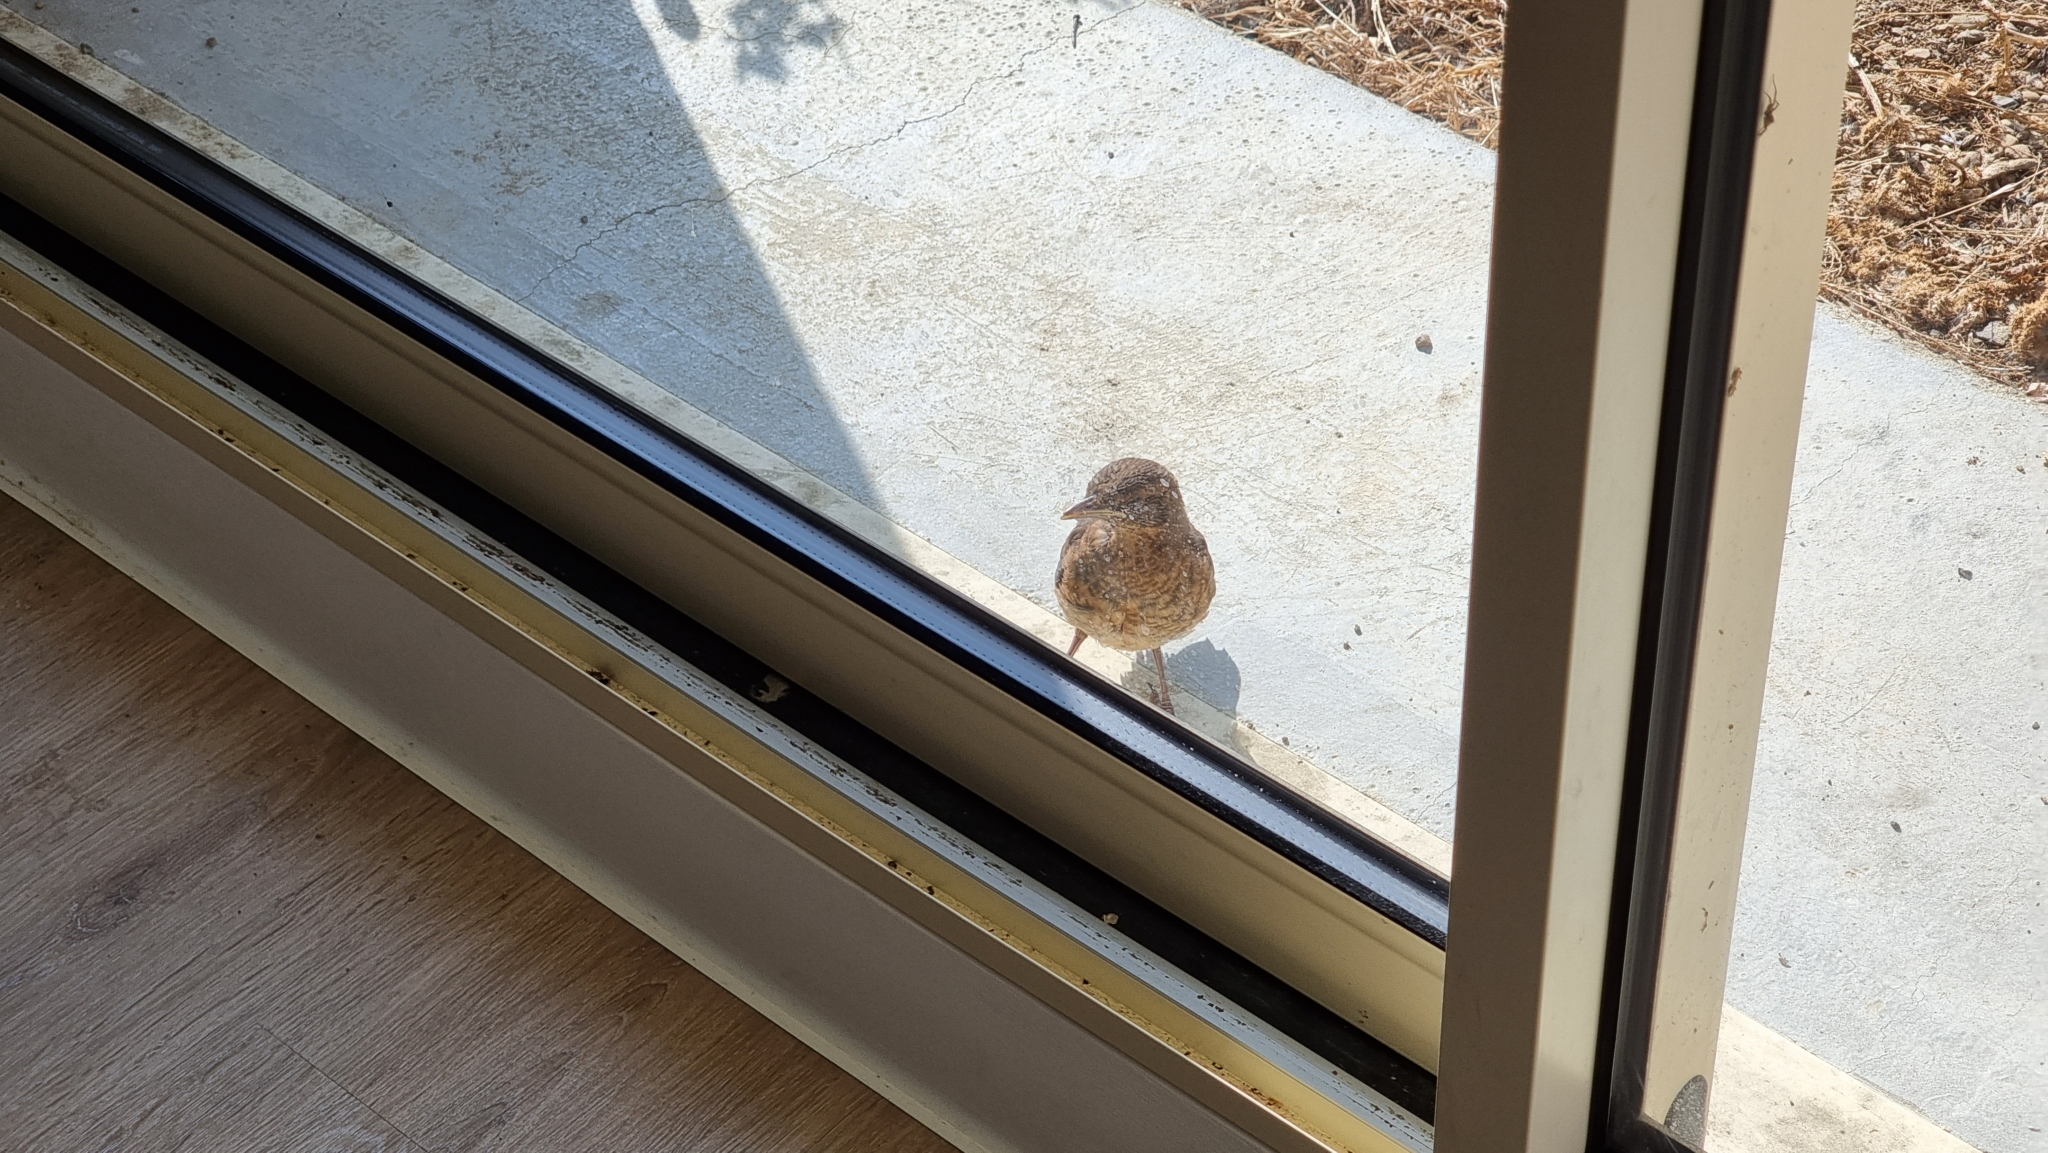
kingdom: Animalia
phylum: Chordata
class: Aves
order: Passeriformes
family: Turdidae
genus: Turdus
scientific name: Turdus merula
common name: Common blackbird
